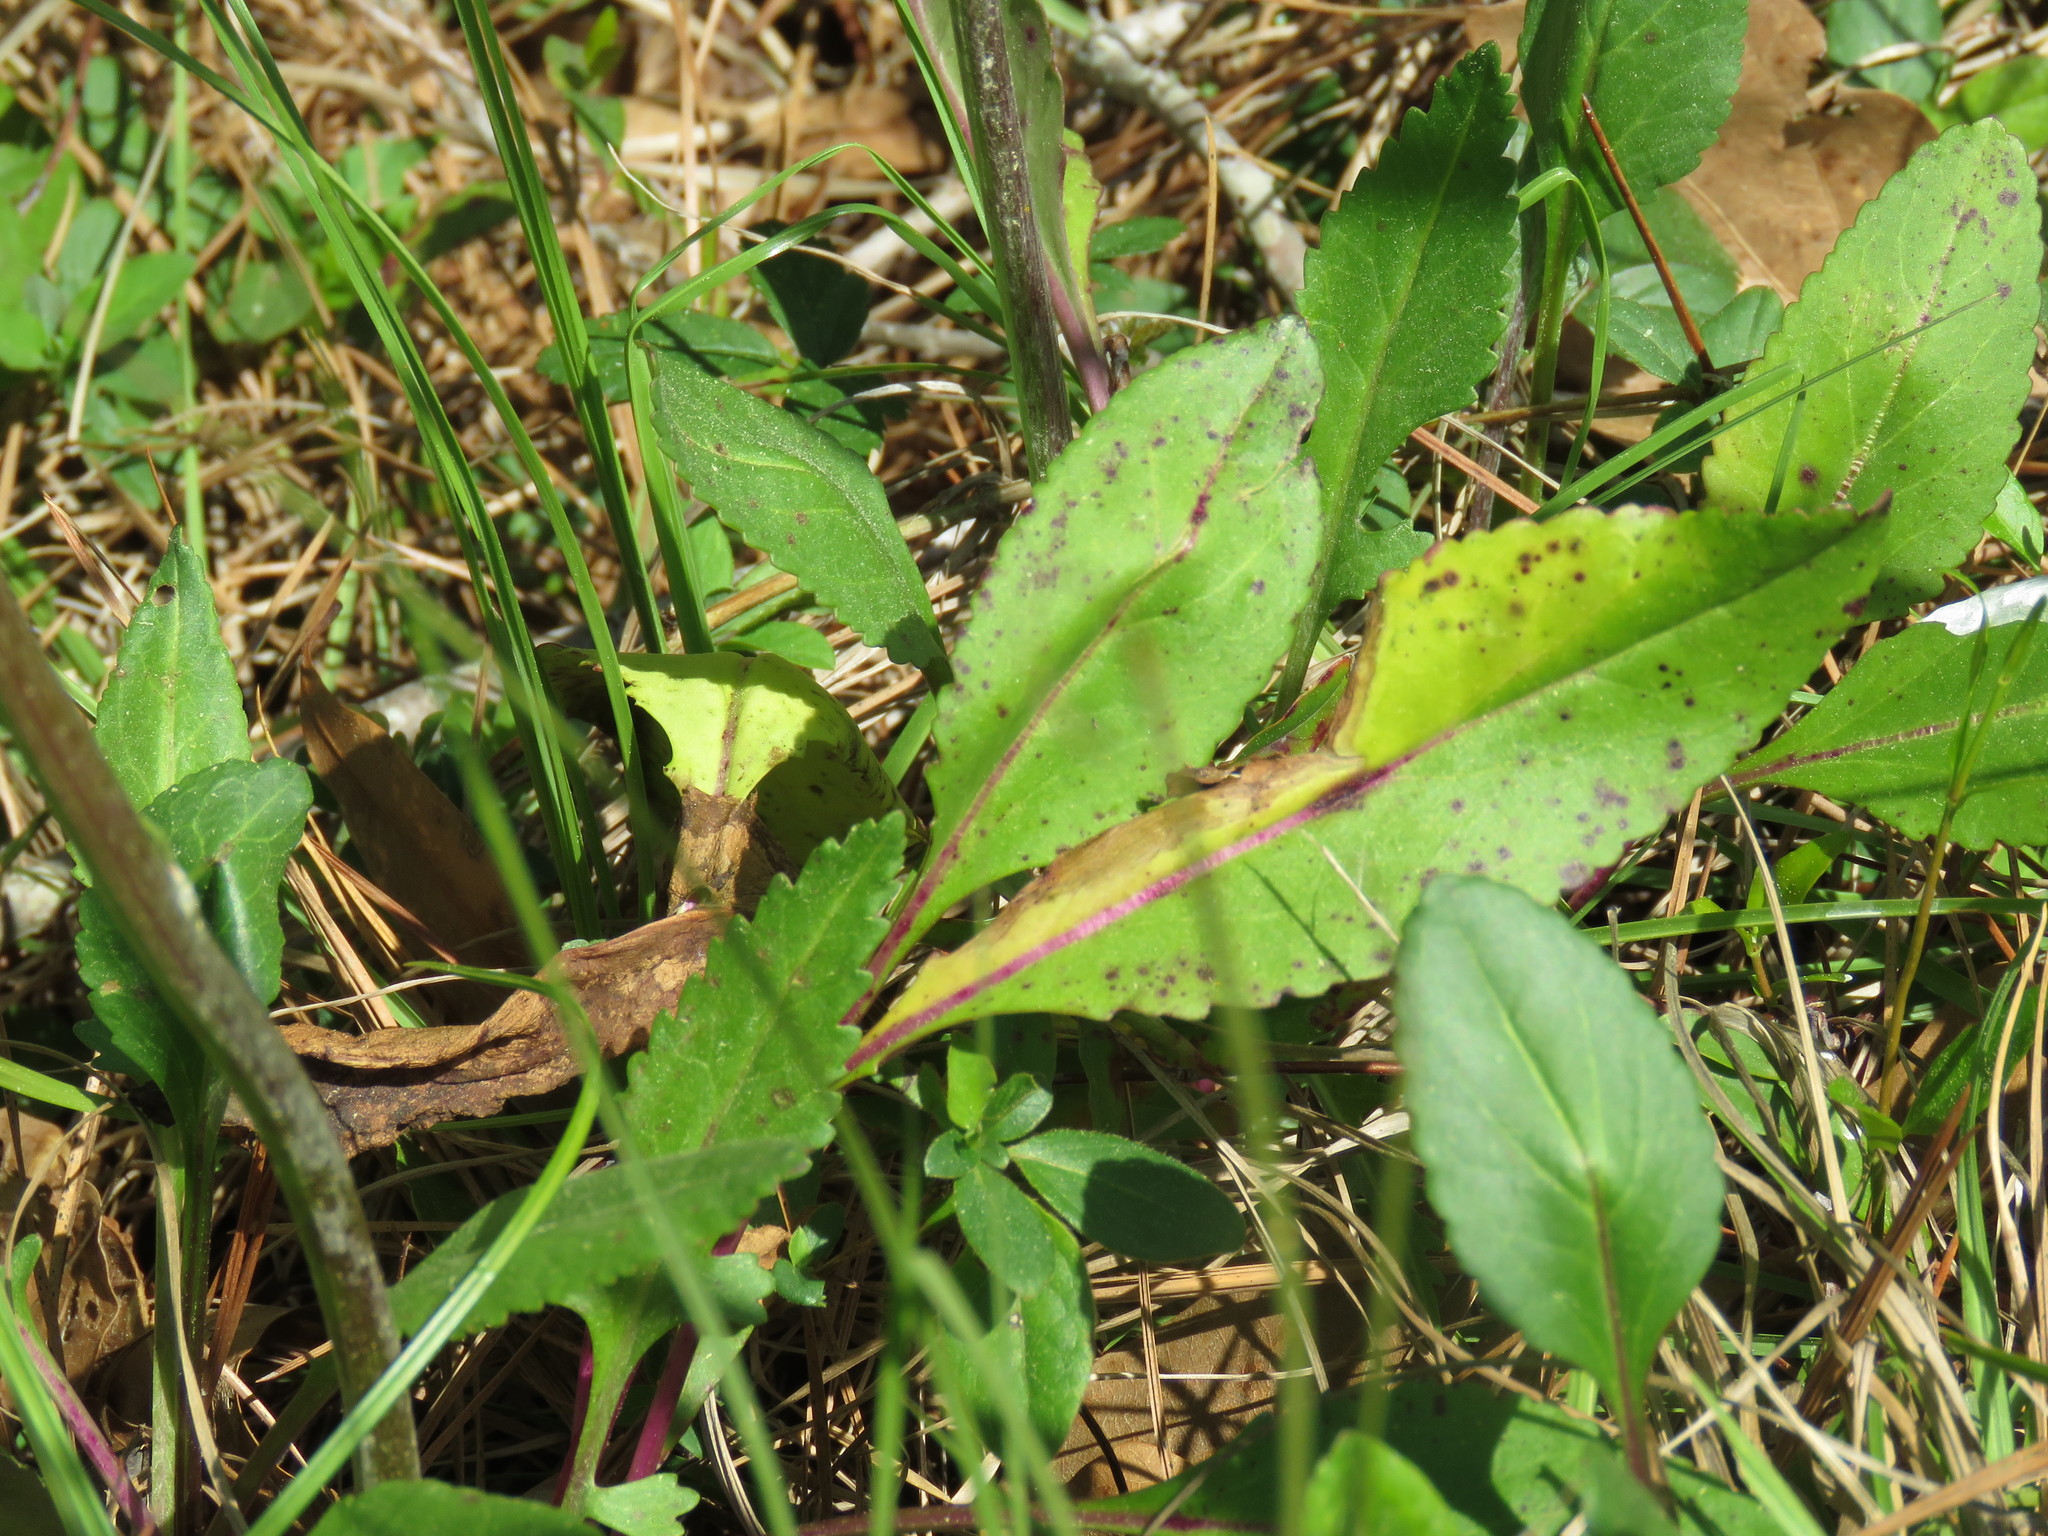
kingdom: Plantae
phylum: Tracheophyta
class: Magnoliopsida
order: Asterales
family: Asteraceae
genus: Packera
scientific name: Packera dubia
